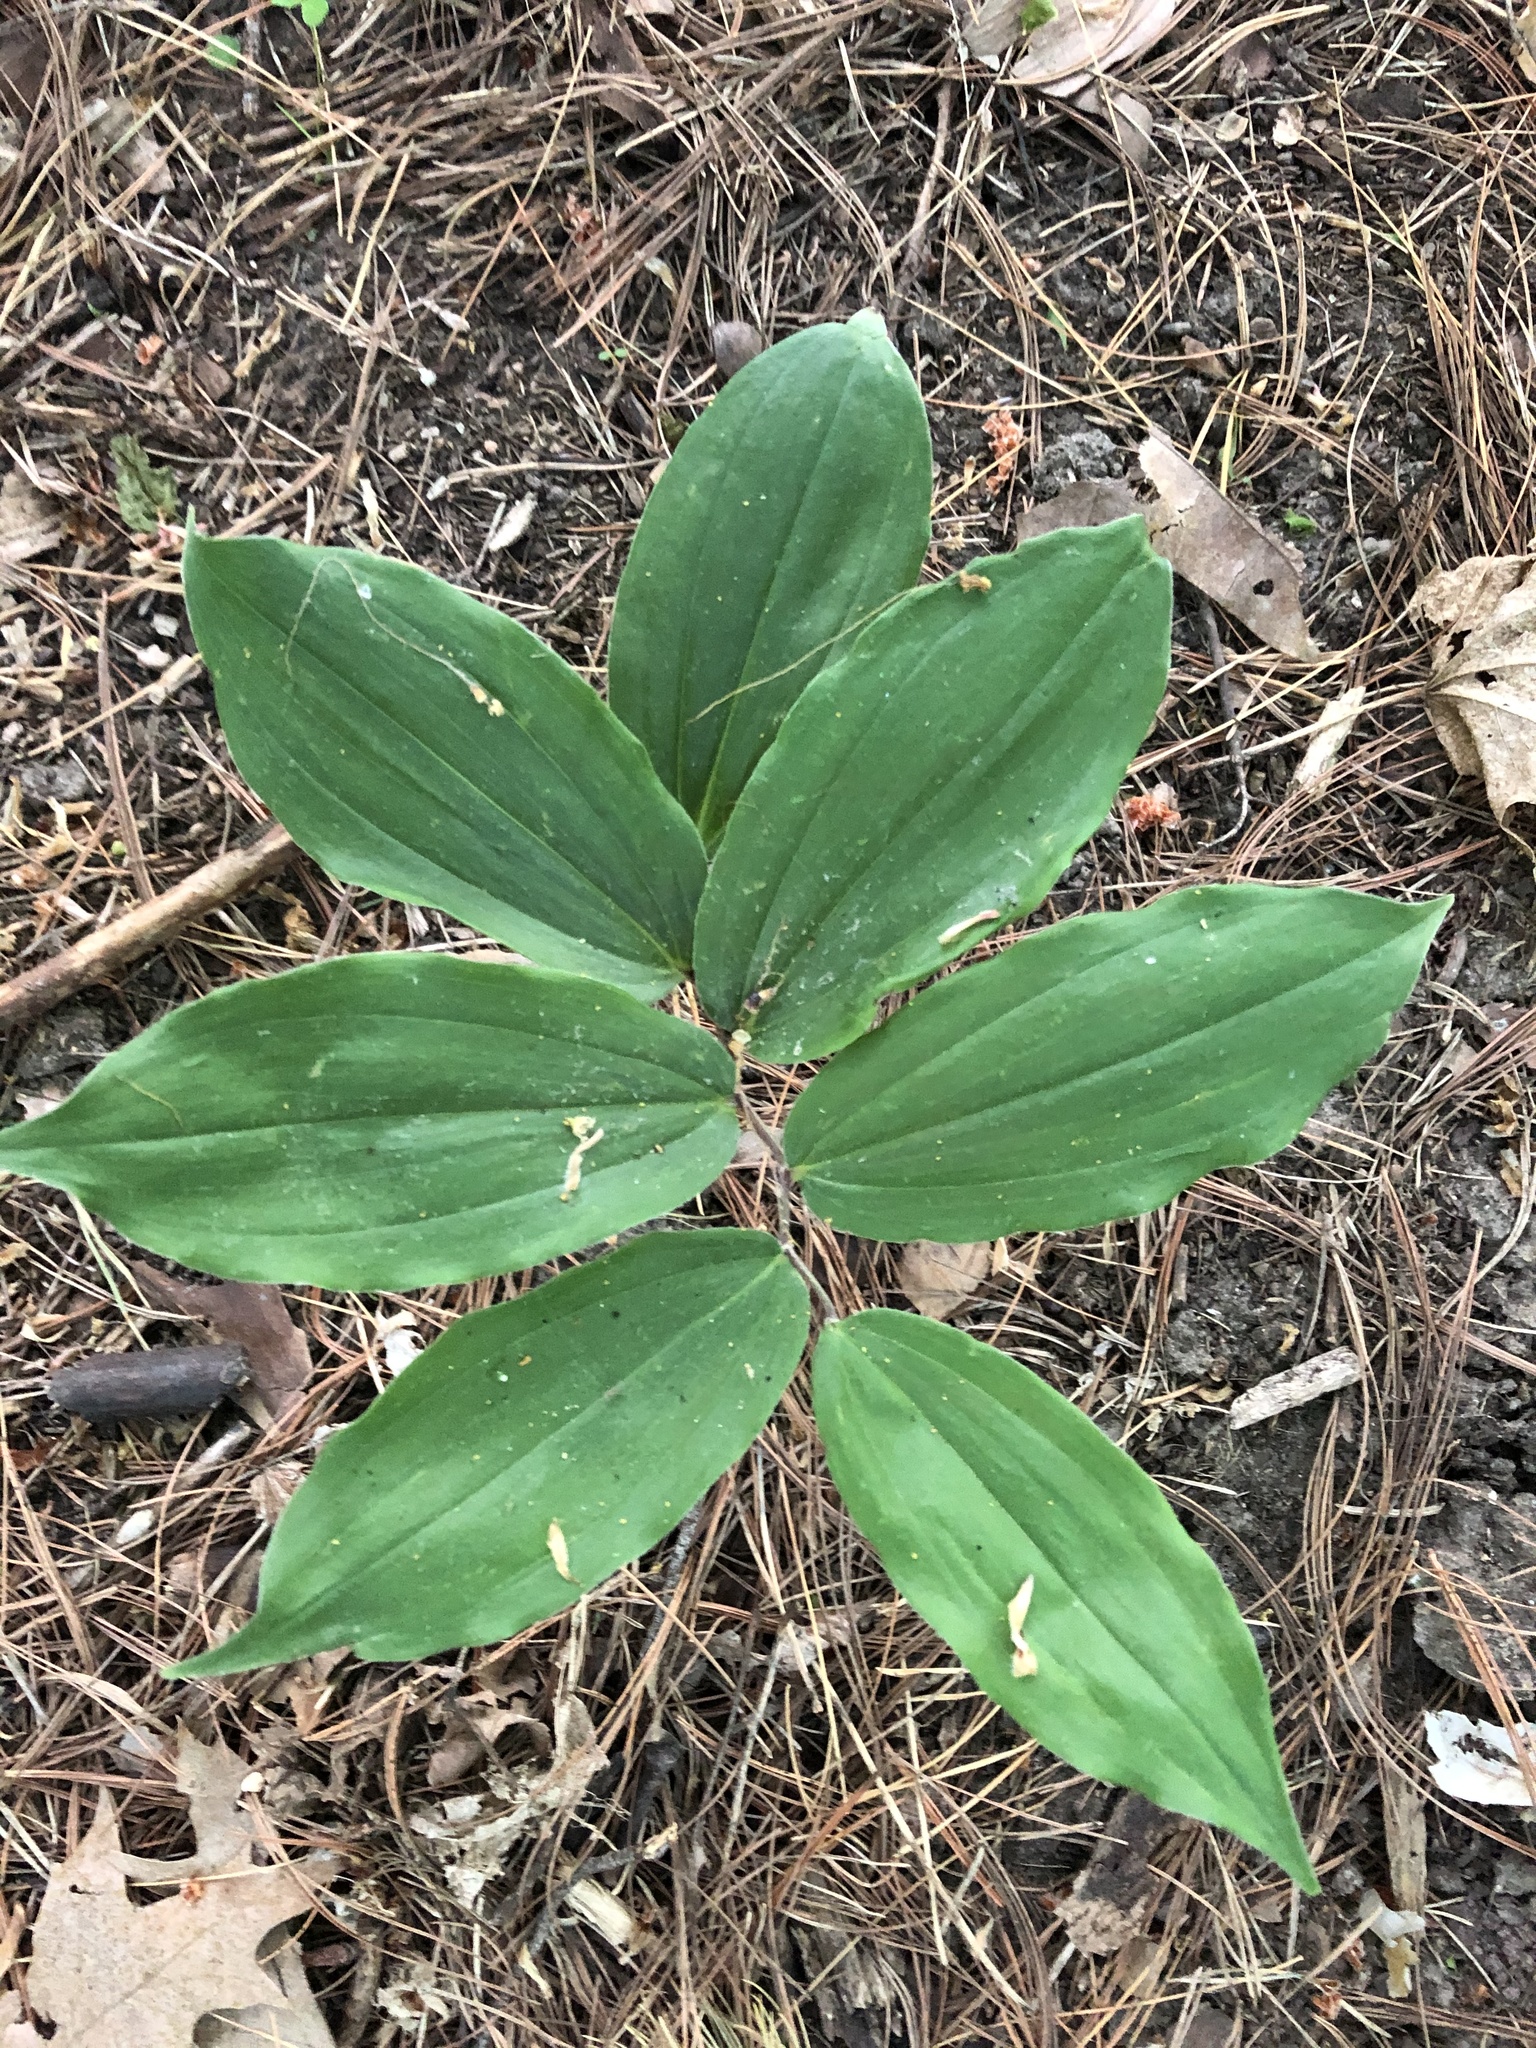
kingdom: Plantae
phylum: Tracheophyta
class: Liliopsida
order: Asparagales
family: Asparagaceae
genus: Maianthemum
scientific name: Maianthemum racemosum
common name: False spikenard
